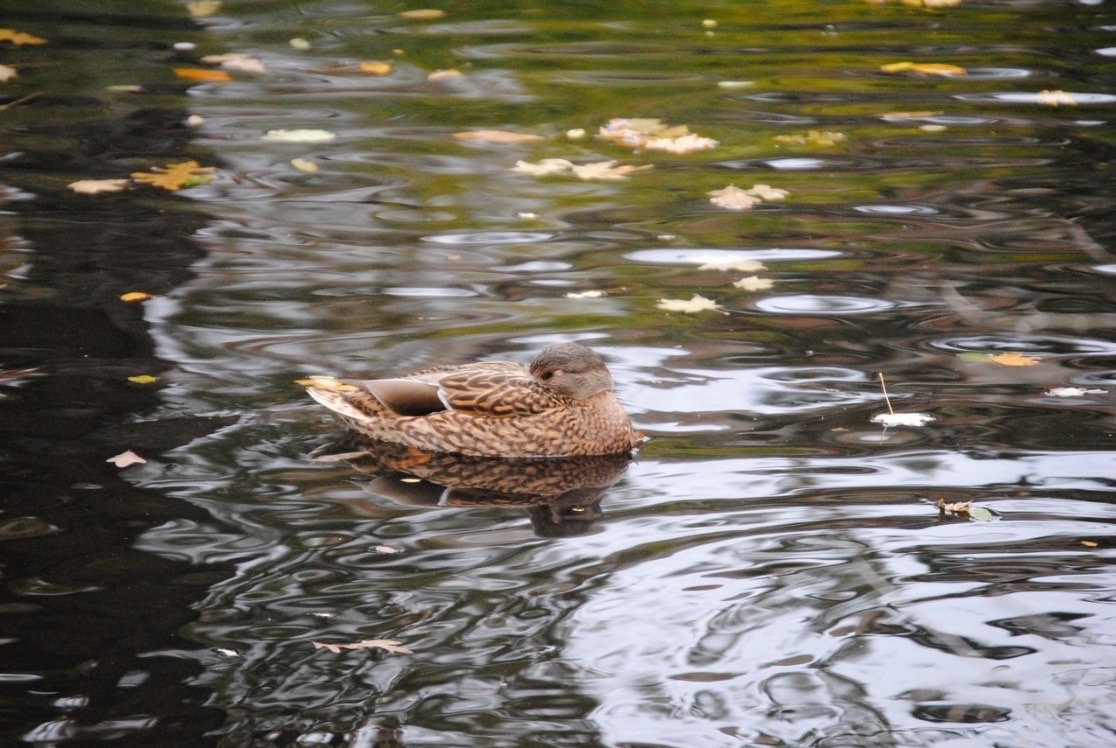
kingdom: Animalia
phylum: Chordata
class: Aves
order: Anseriformes
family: Anatidae
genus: Anas
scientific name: Anas platyrhynchos
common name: Mallard
